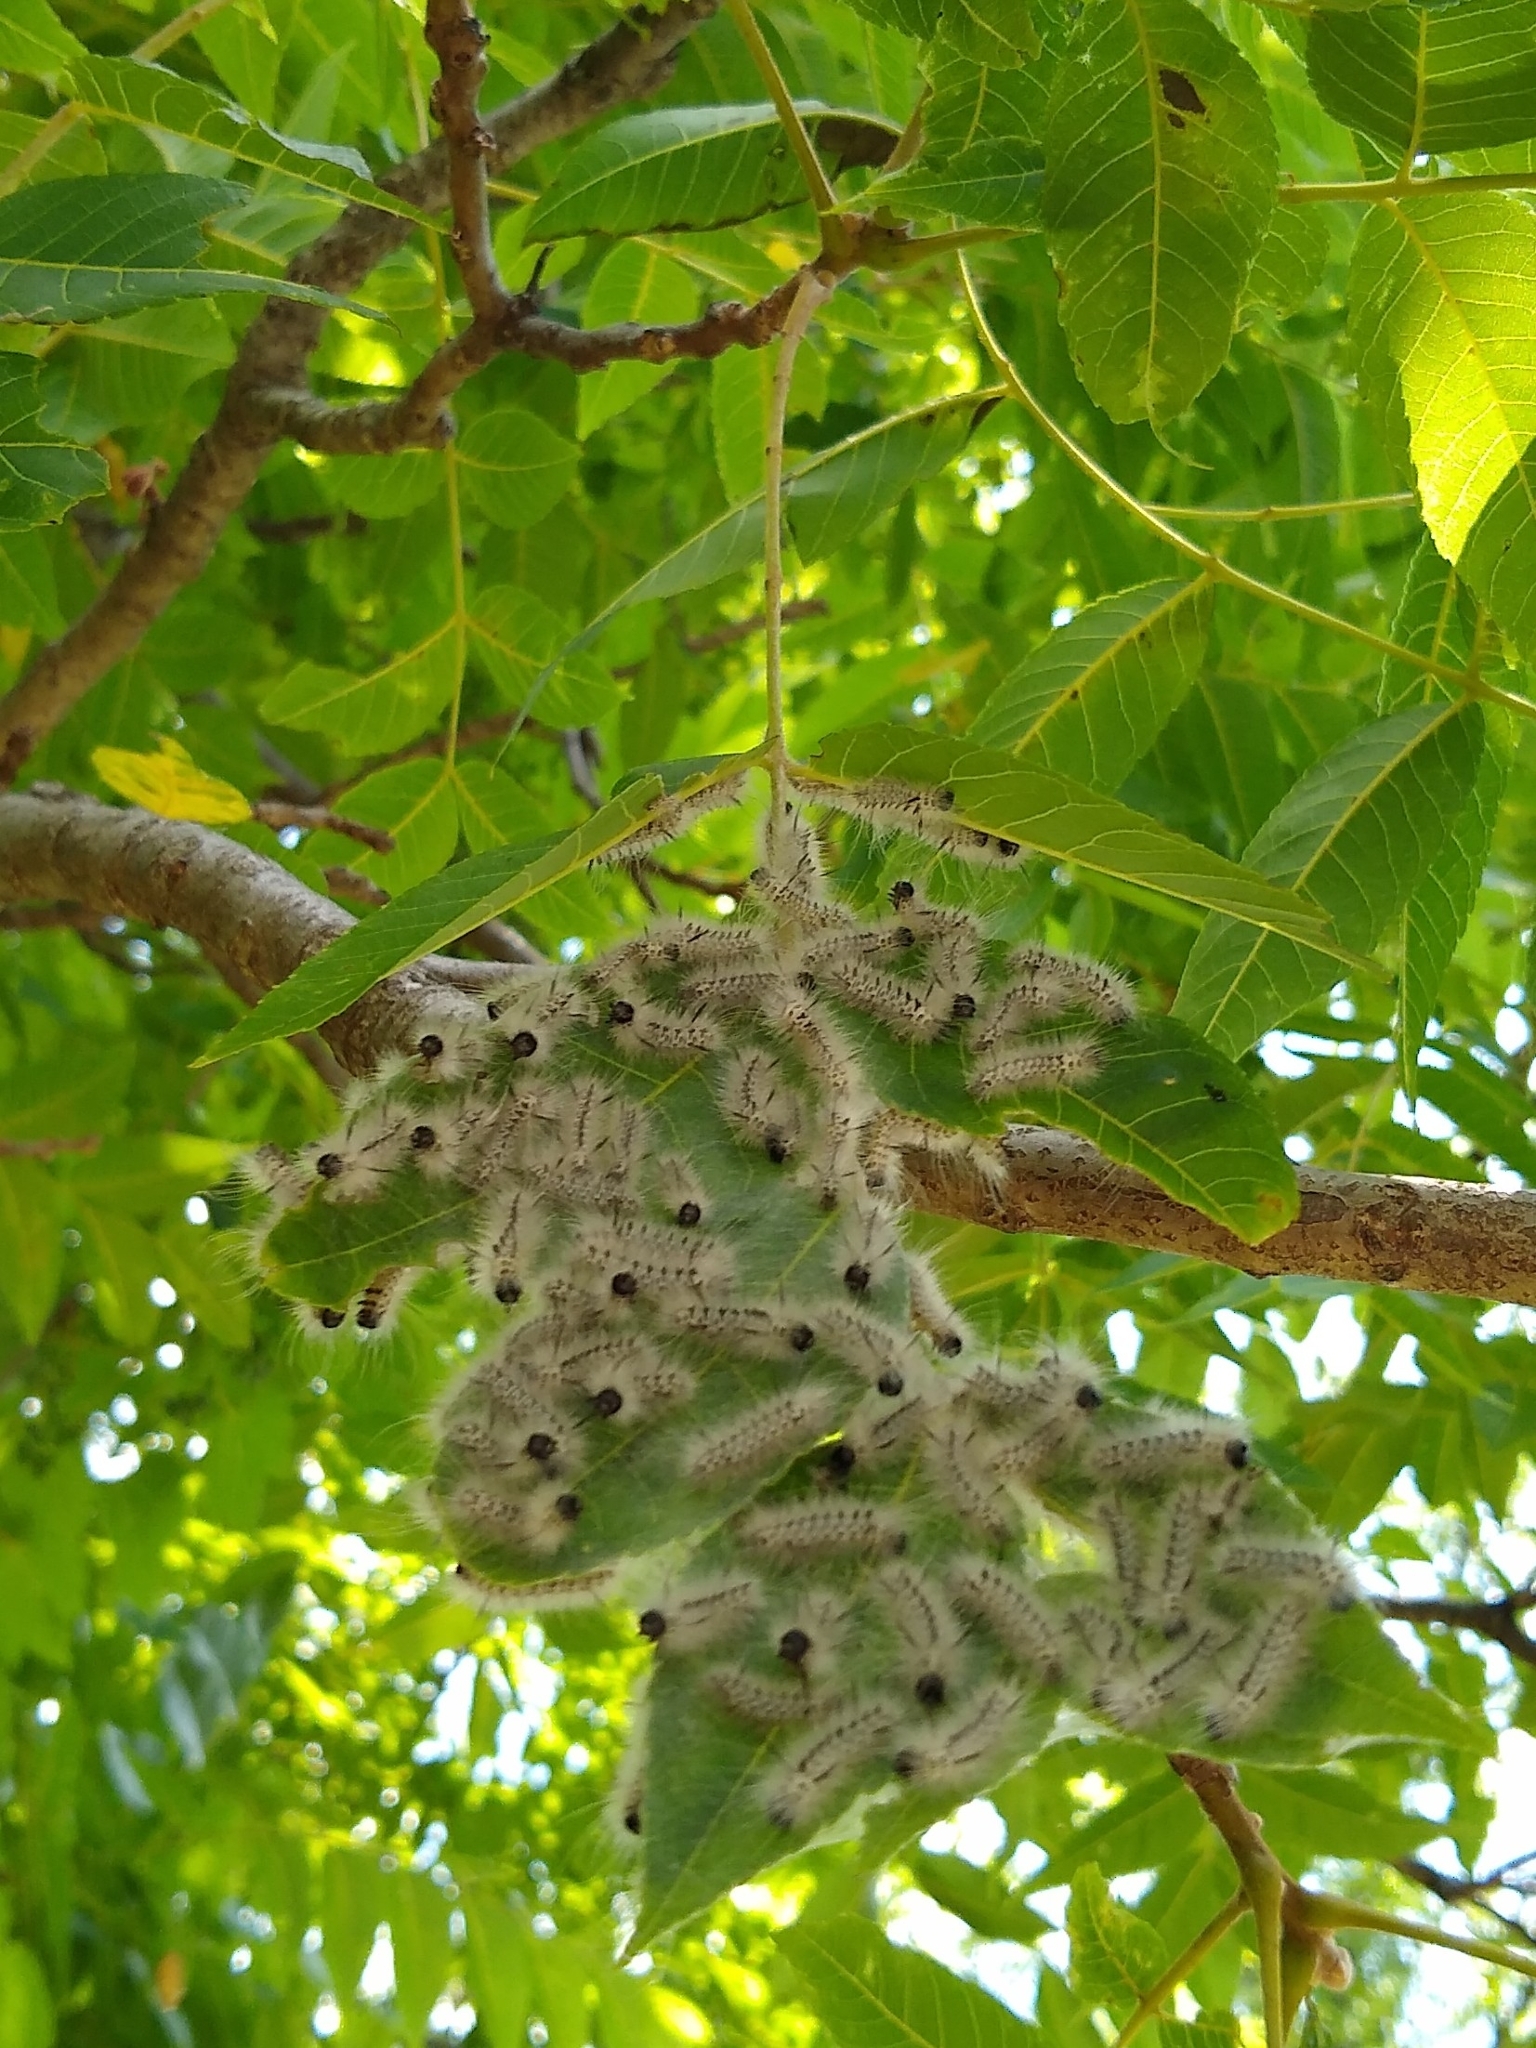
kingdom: Animalia
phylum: Arthropoda
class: Insecta
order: Lepidoptera
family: Erebidae
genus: Lophocampa
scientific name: Lophocampa caryae
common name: Hickory tussock moth
